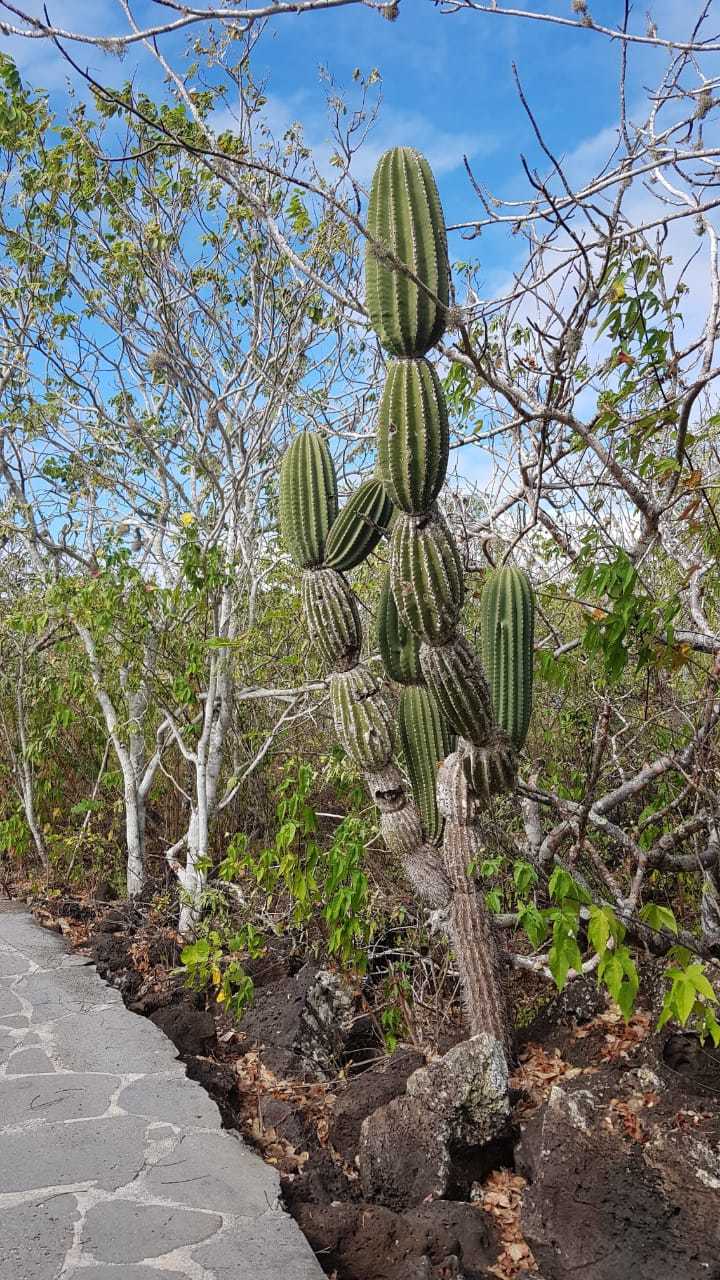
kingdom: Plantae
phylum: Tracheophyta
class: Magnoliopsida
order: Caryophyllales
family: Cactaceae
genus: Jasminocereus
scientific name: Jasminocereus thouarsii
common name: Candelabra cactus
